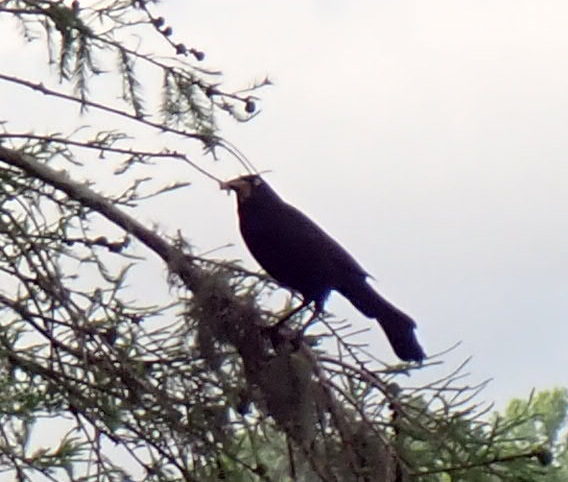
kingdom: Animalia
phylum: Chordata
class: Aves
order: Passeriformes
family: Icteridae
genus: Quiscalus
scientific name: Quiscalus quiscula
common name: Common grackle
